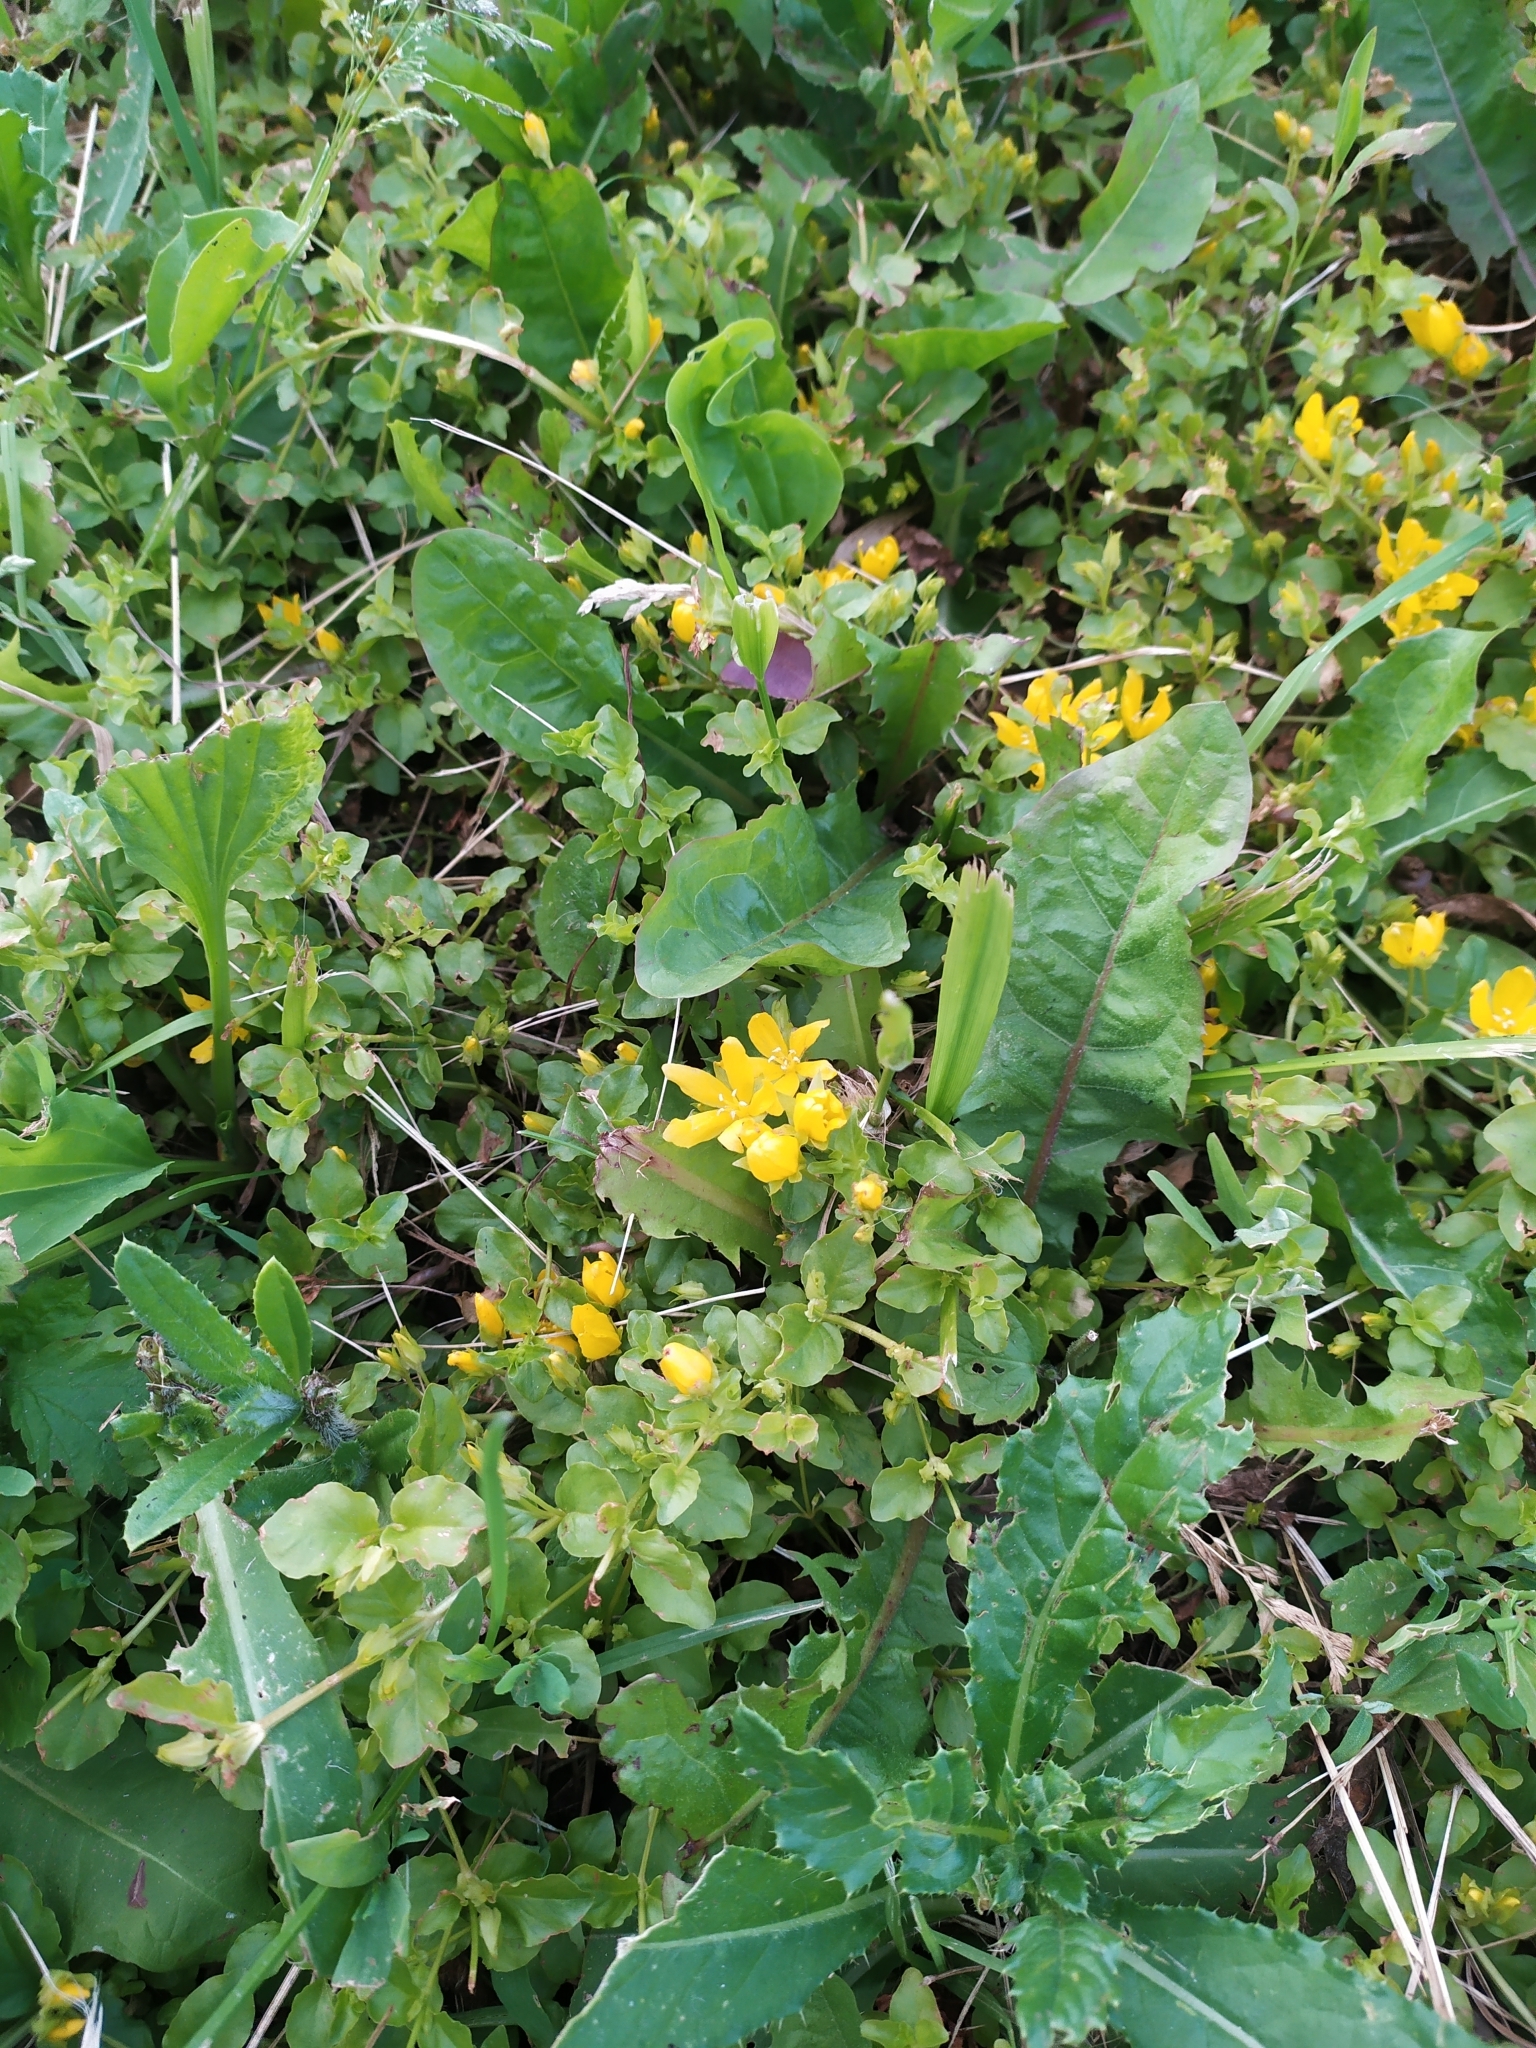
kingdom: Plantae
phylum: Tracheophyta
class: Magnoliopsida
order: Ericales
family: Primulaceae
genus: Lysimachia
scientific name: Lysimachia nummularia
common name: Moneywort
